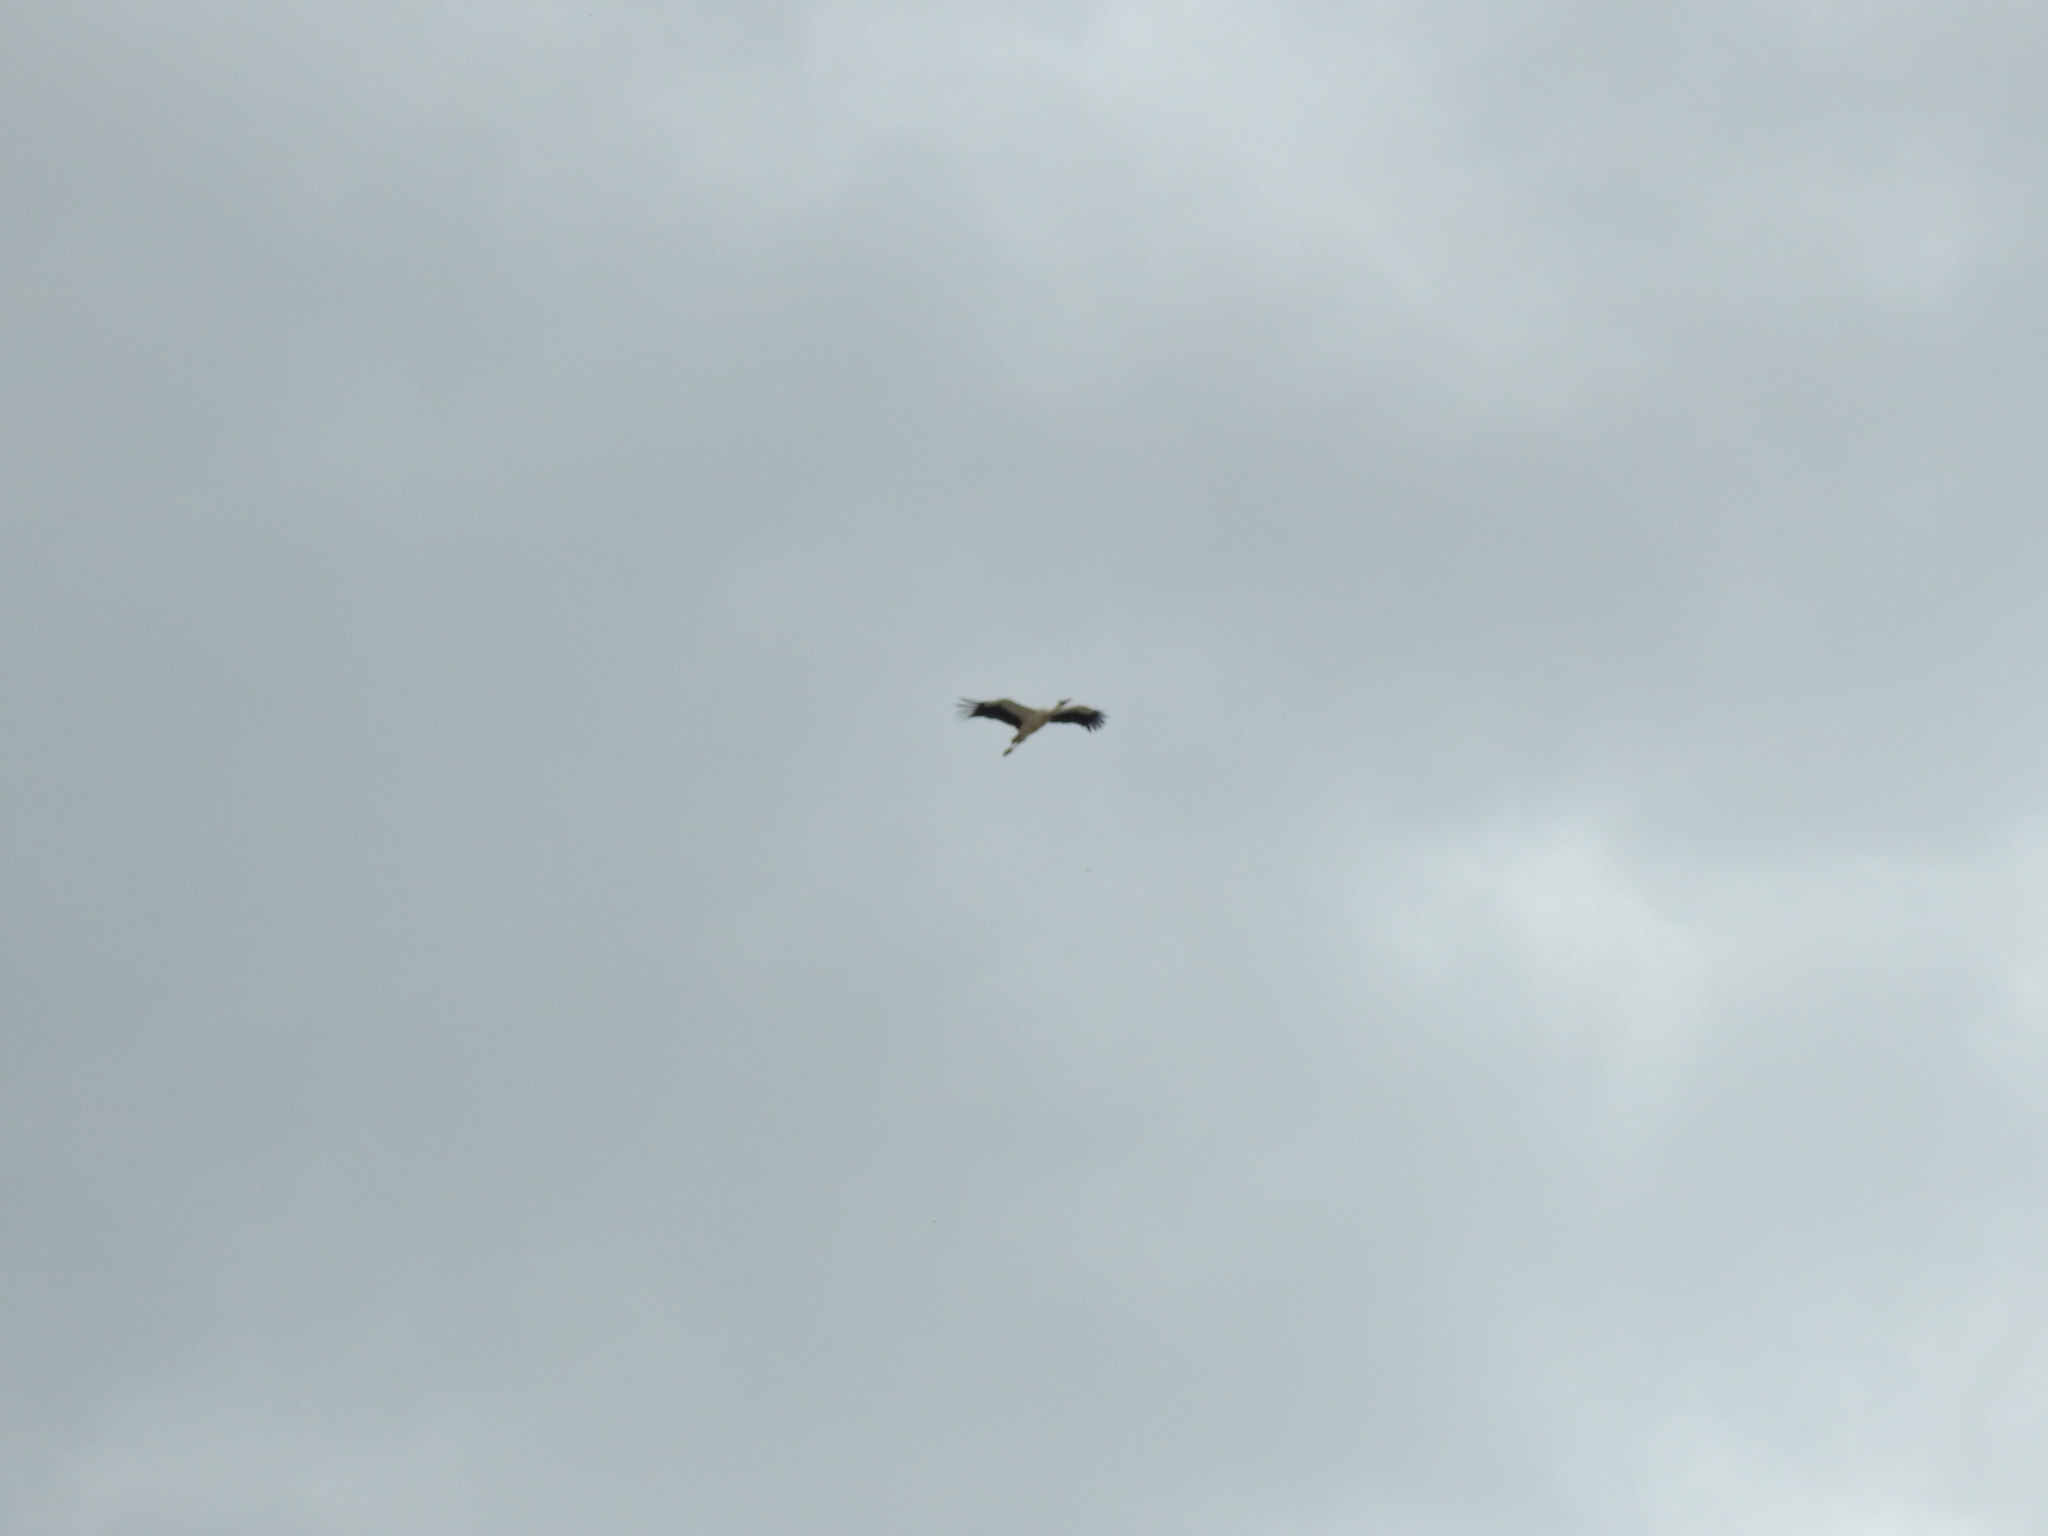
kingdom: Animalia
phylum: Chordata
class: Aves
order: Ciconiiformes
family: Ciconiidae
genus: Ciconia
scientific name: Ciconia ciconia
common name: White stork
